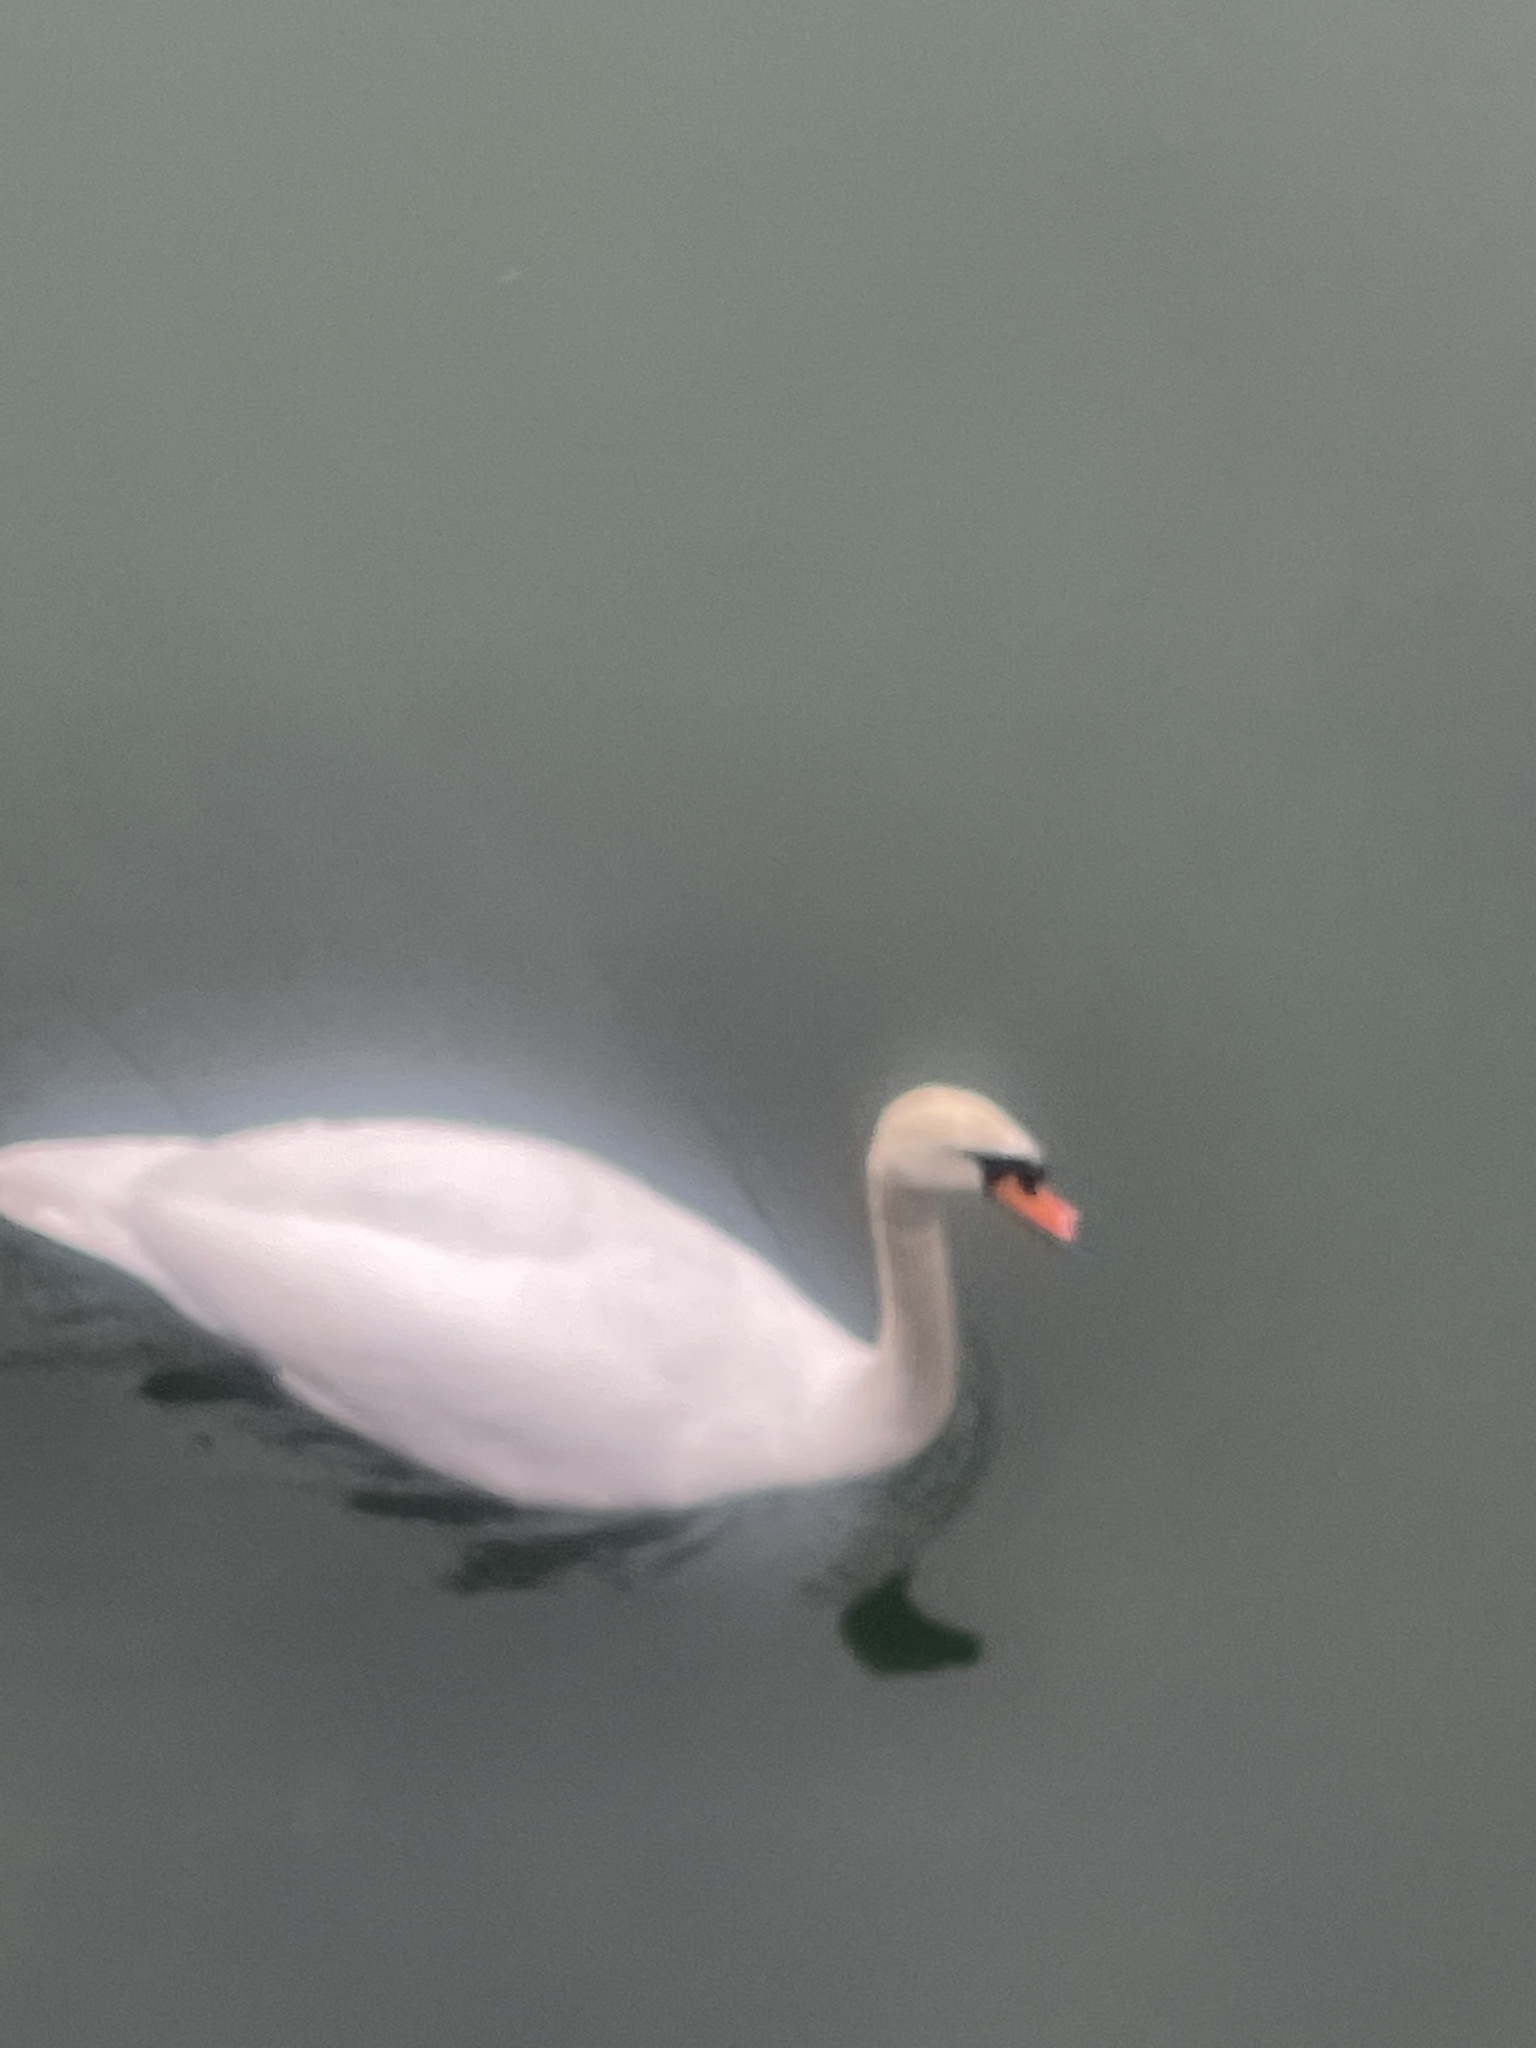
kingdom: Animalia
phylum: Chordata
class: Aves
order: Anseriformes
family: Anatidae
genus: Cygnus
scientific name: Cygnus olor
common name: Mute swan
